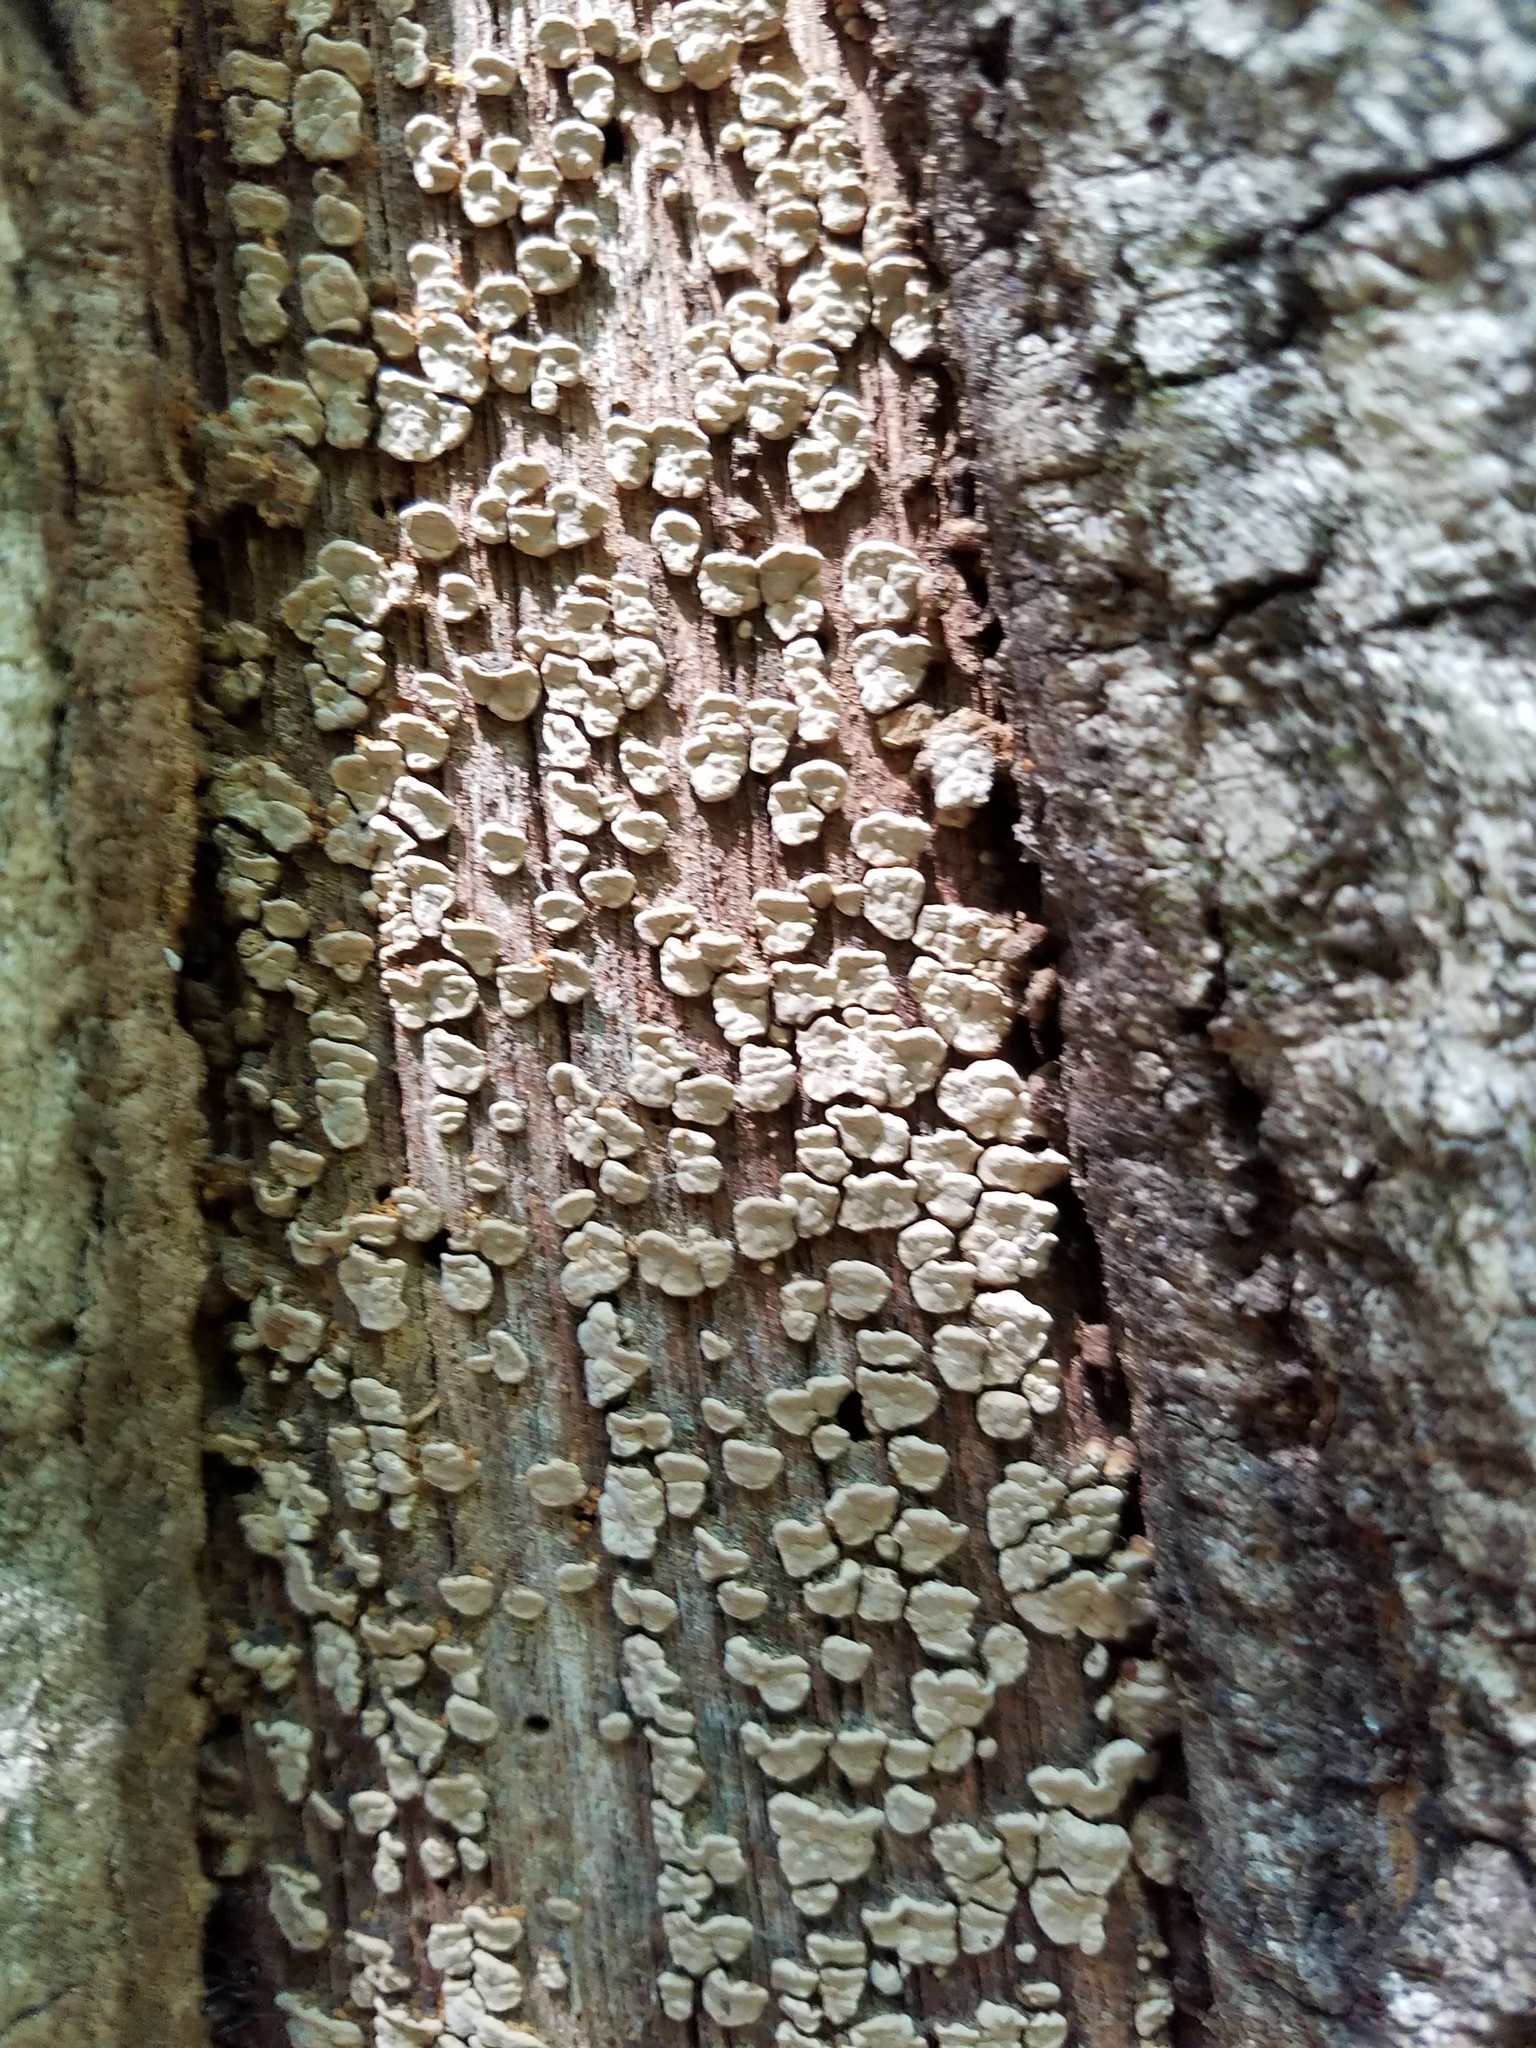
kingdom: Fungi
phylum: Basidiomycota
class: Agaricomycetes
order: Russulales
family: Stereaceae
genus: Xylobolus
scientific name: Xylobolus frustulatus
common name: Ceramic parchment
